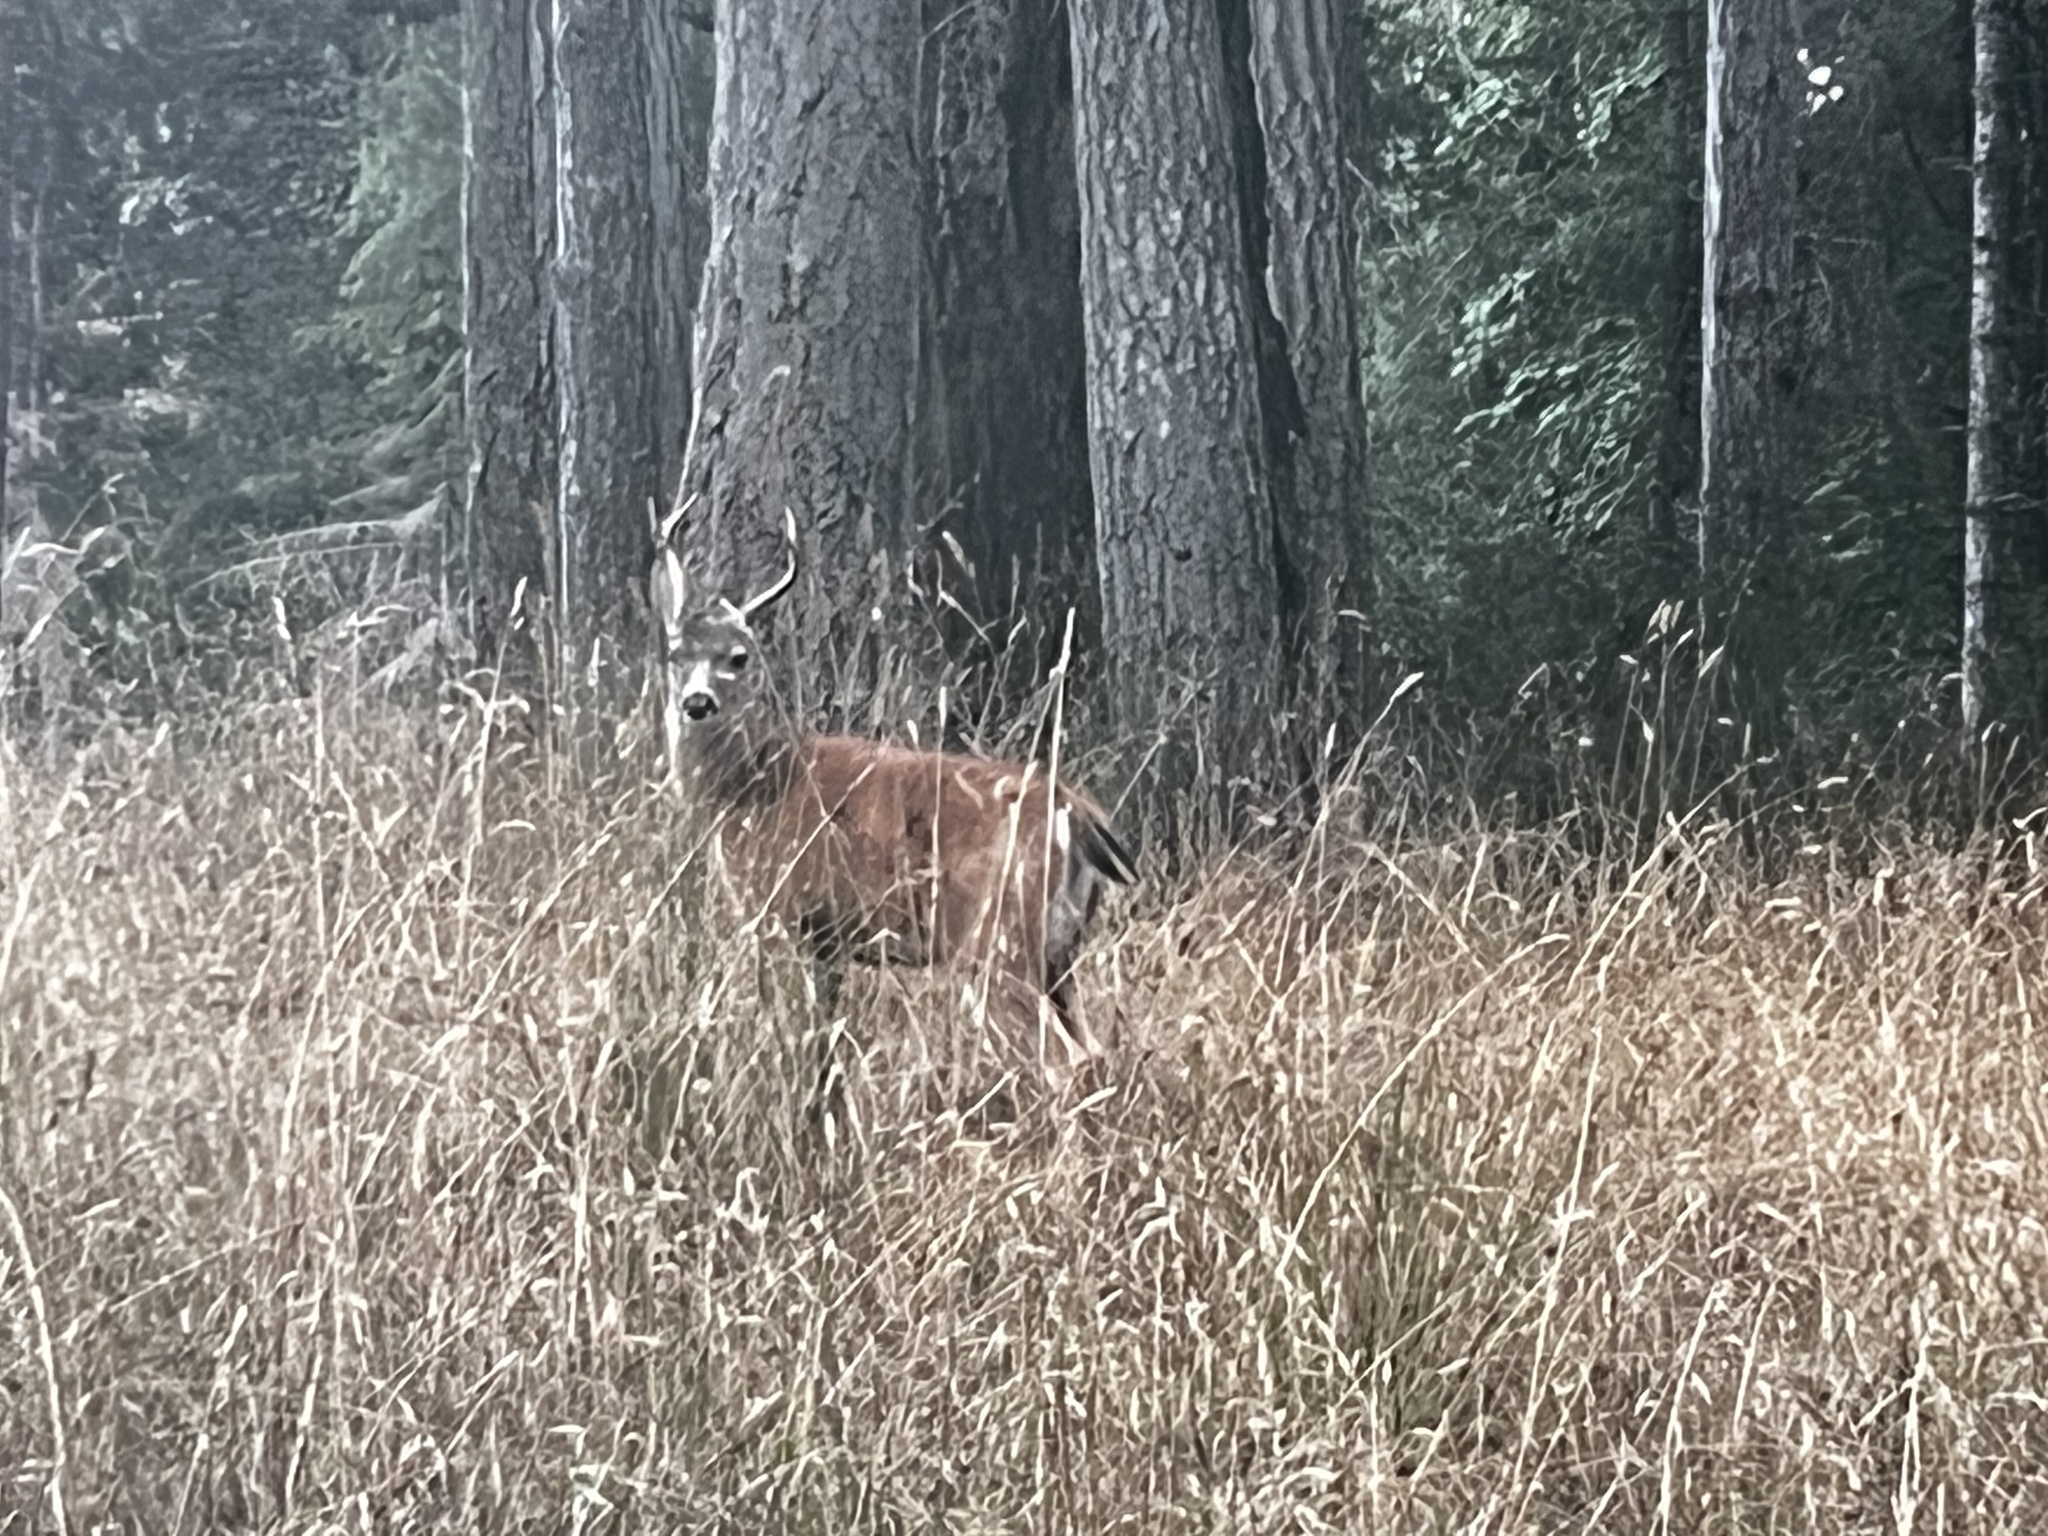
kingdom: Animalia
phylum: Chordata
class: Mammalia
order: Artiodactyla
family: Cervidae
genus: Odocoileus
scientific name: Odocoileus hemionus
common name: Mule deer
